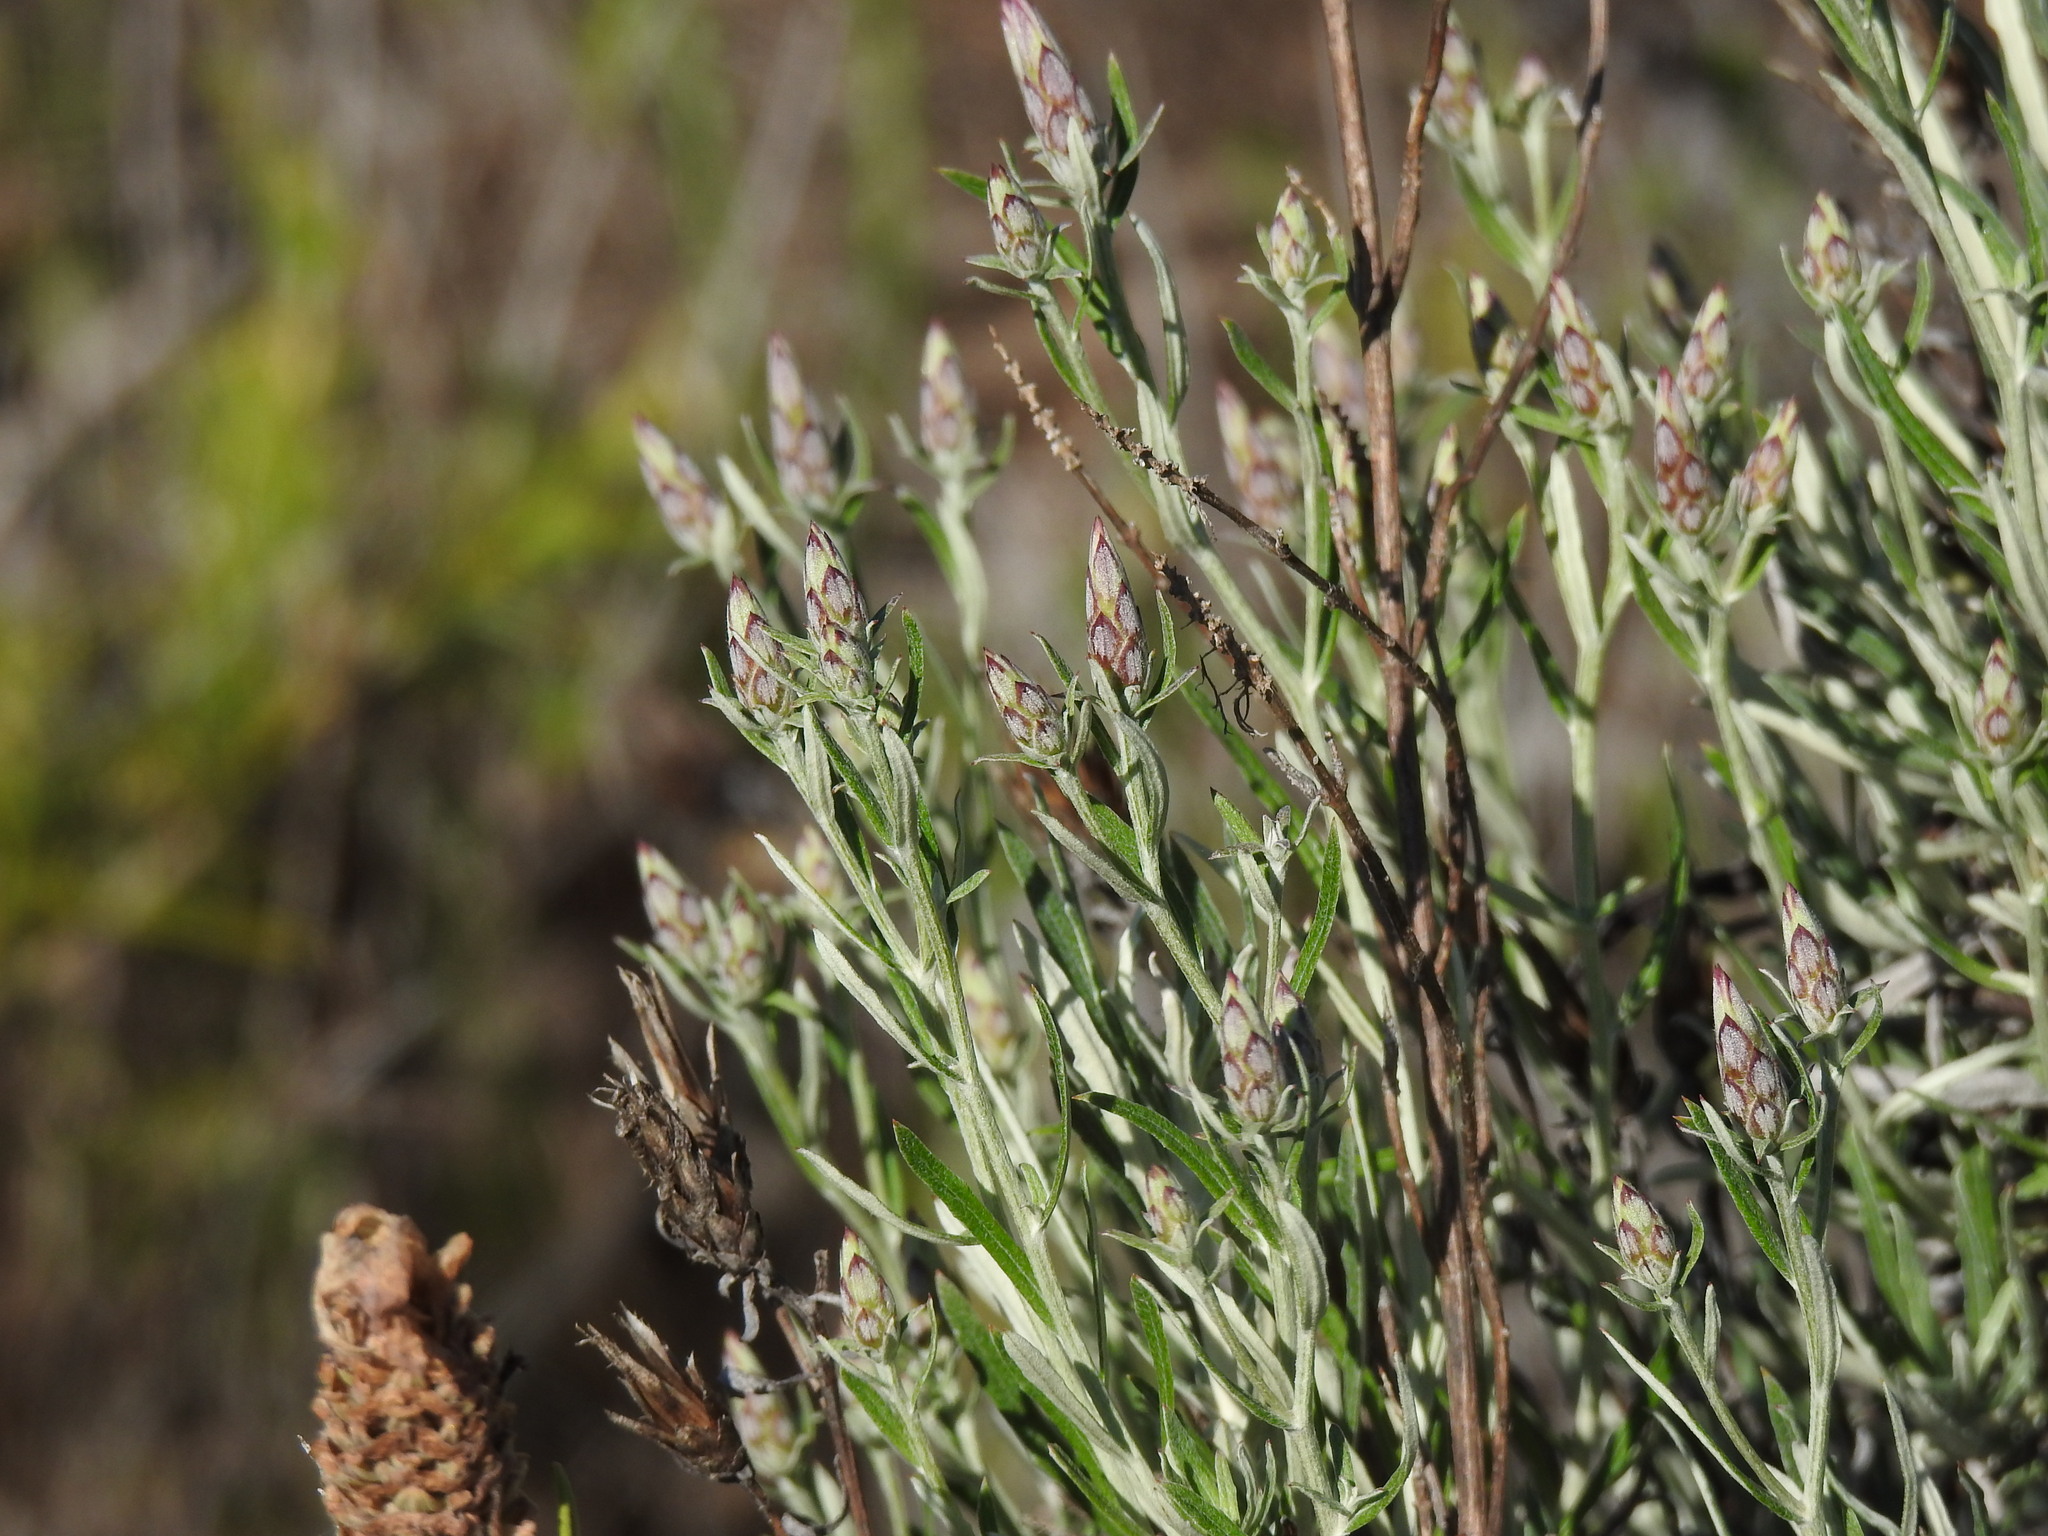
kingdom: Plantae
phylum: Tracheophyta
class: Magnoliopsida
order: Asterales
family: Asteraceae
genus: Staehelina
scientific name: Staehelina dubia
